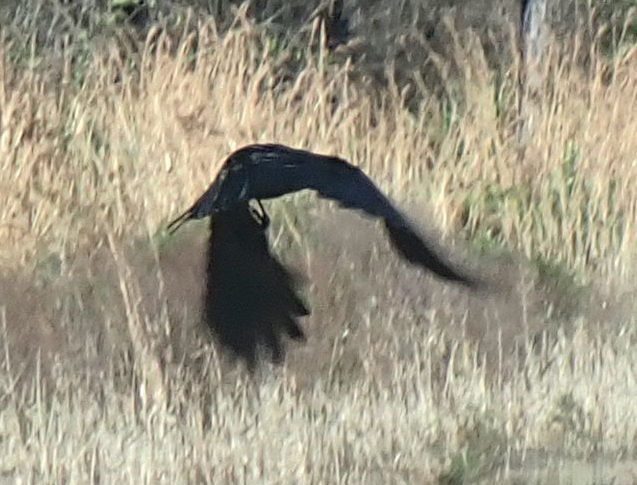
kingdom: Animalia
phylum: Chordata
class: Aves
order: Passeriformes
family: Corvidae
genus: Corvus
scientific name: Corvus brachyrhynchos
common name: American crow
